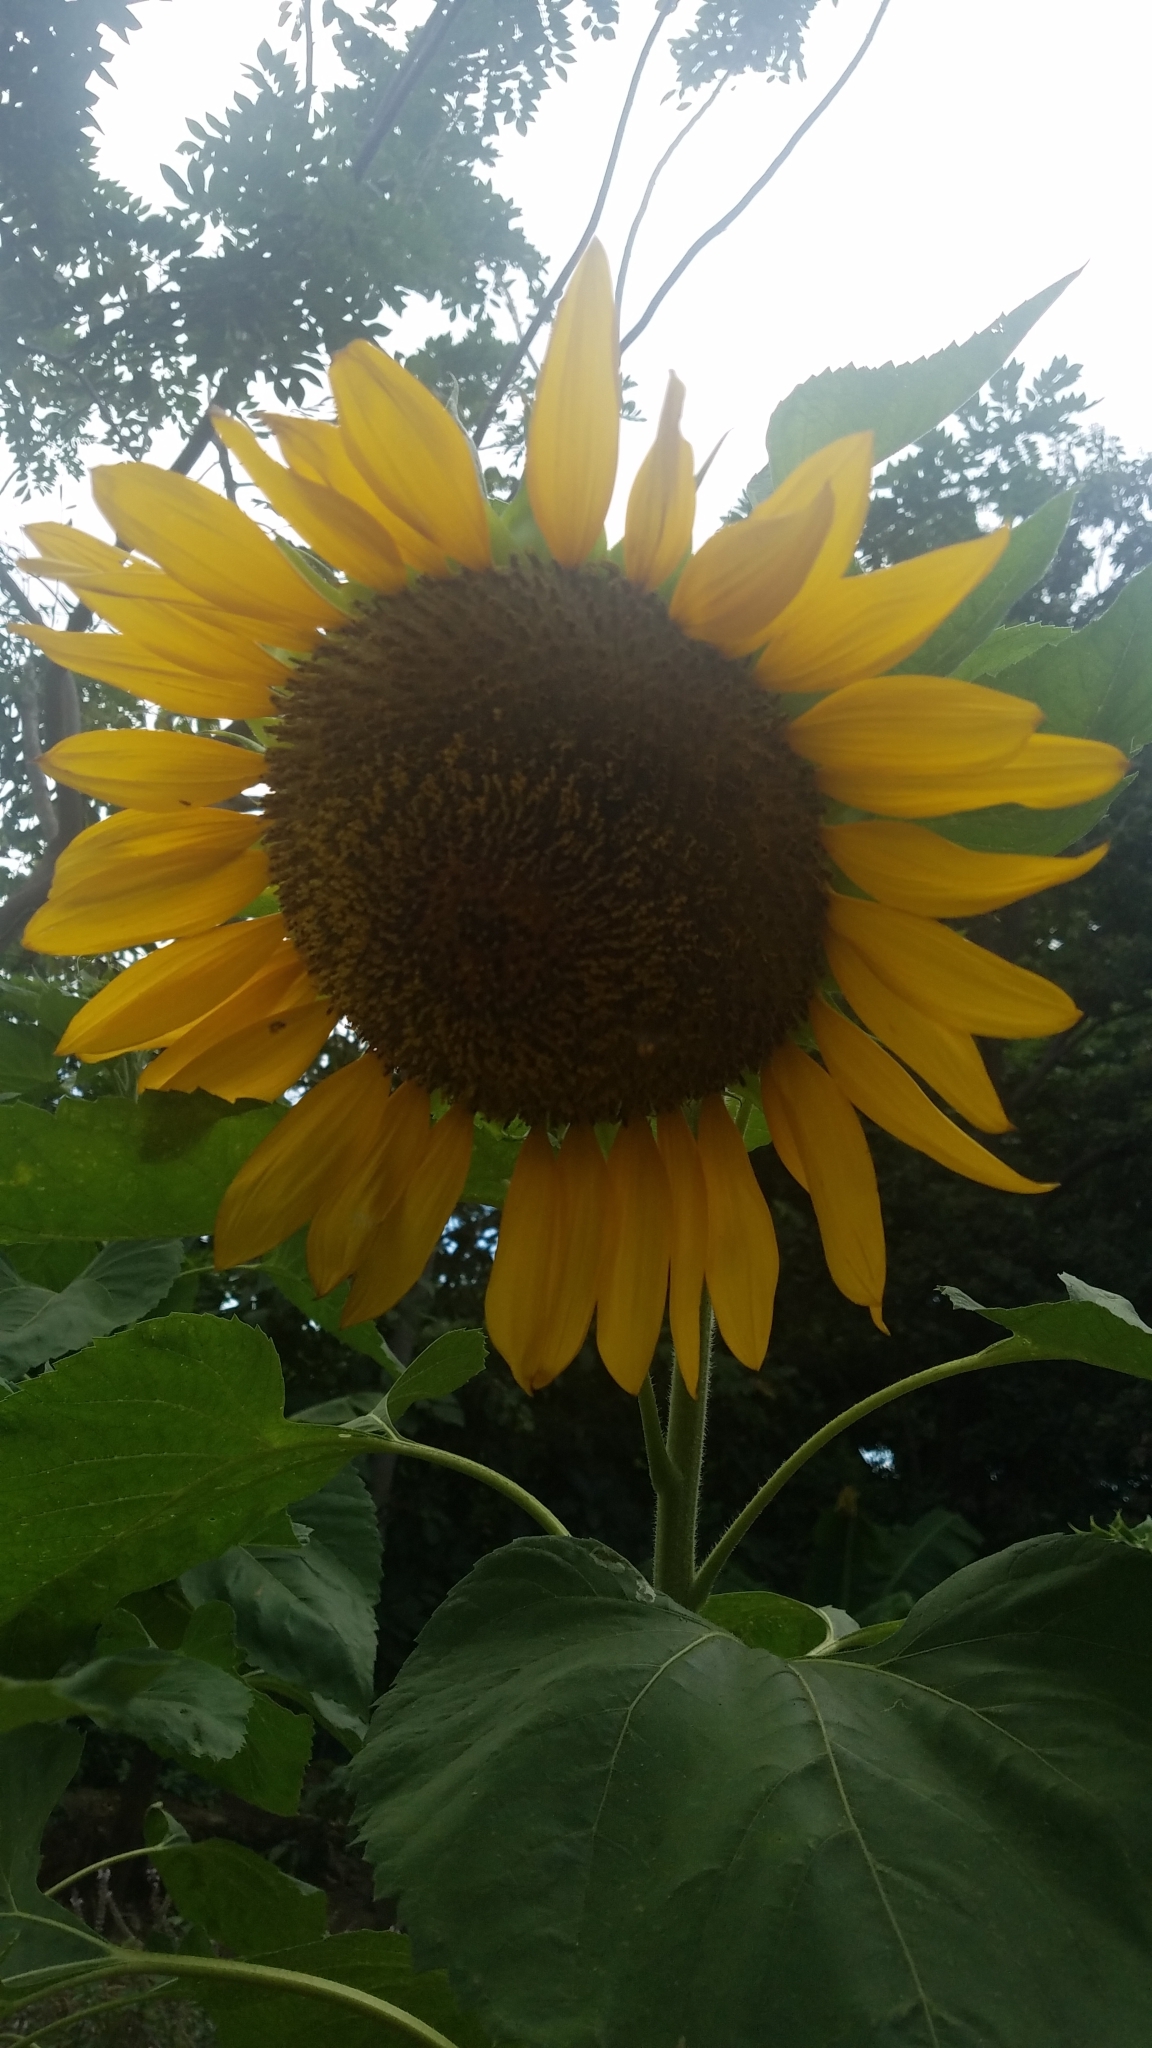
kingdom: Plantae
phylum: Tracheophyta
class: Magnoliopsida
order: Asterales
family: Asteraceae
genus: Helianthus
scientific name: Helianthus annuus
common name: Sunflower
